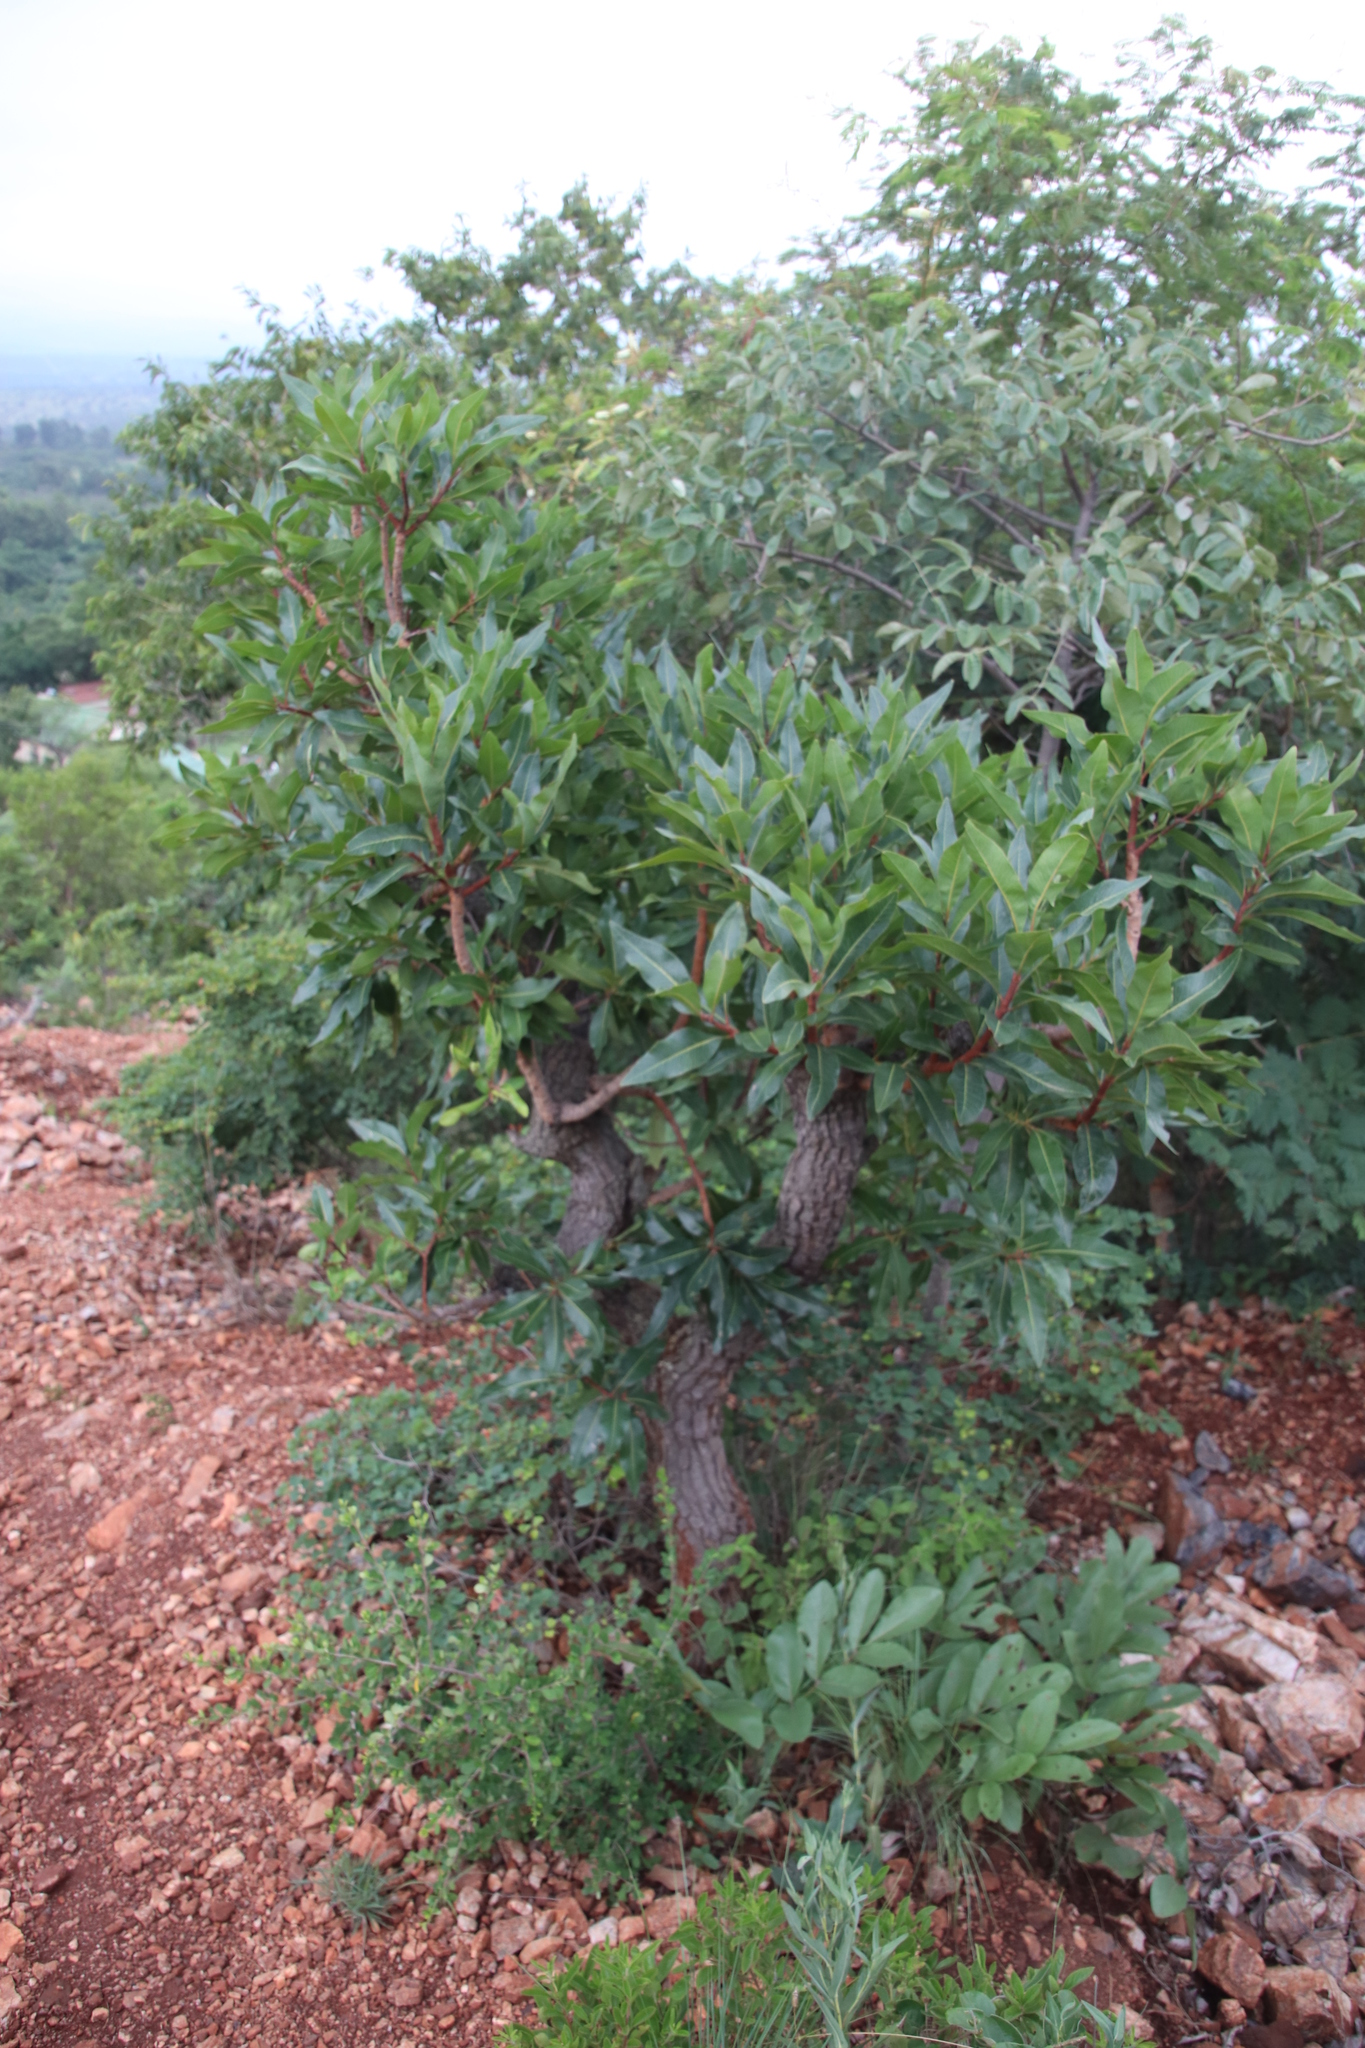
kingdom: Plantae
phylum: Tracheophyta
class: Magnoliopsida
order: Proteales
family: Proteaceae
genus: Faurea
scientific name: Faurea rochetiana
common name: Broad-leaved beech
